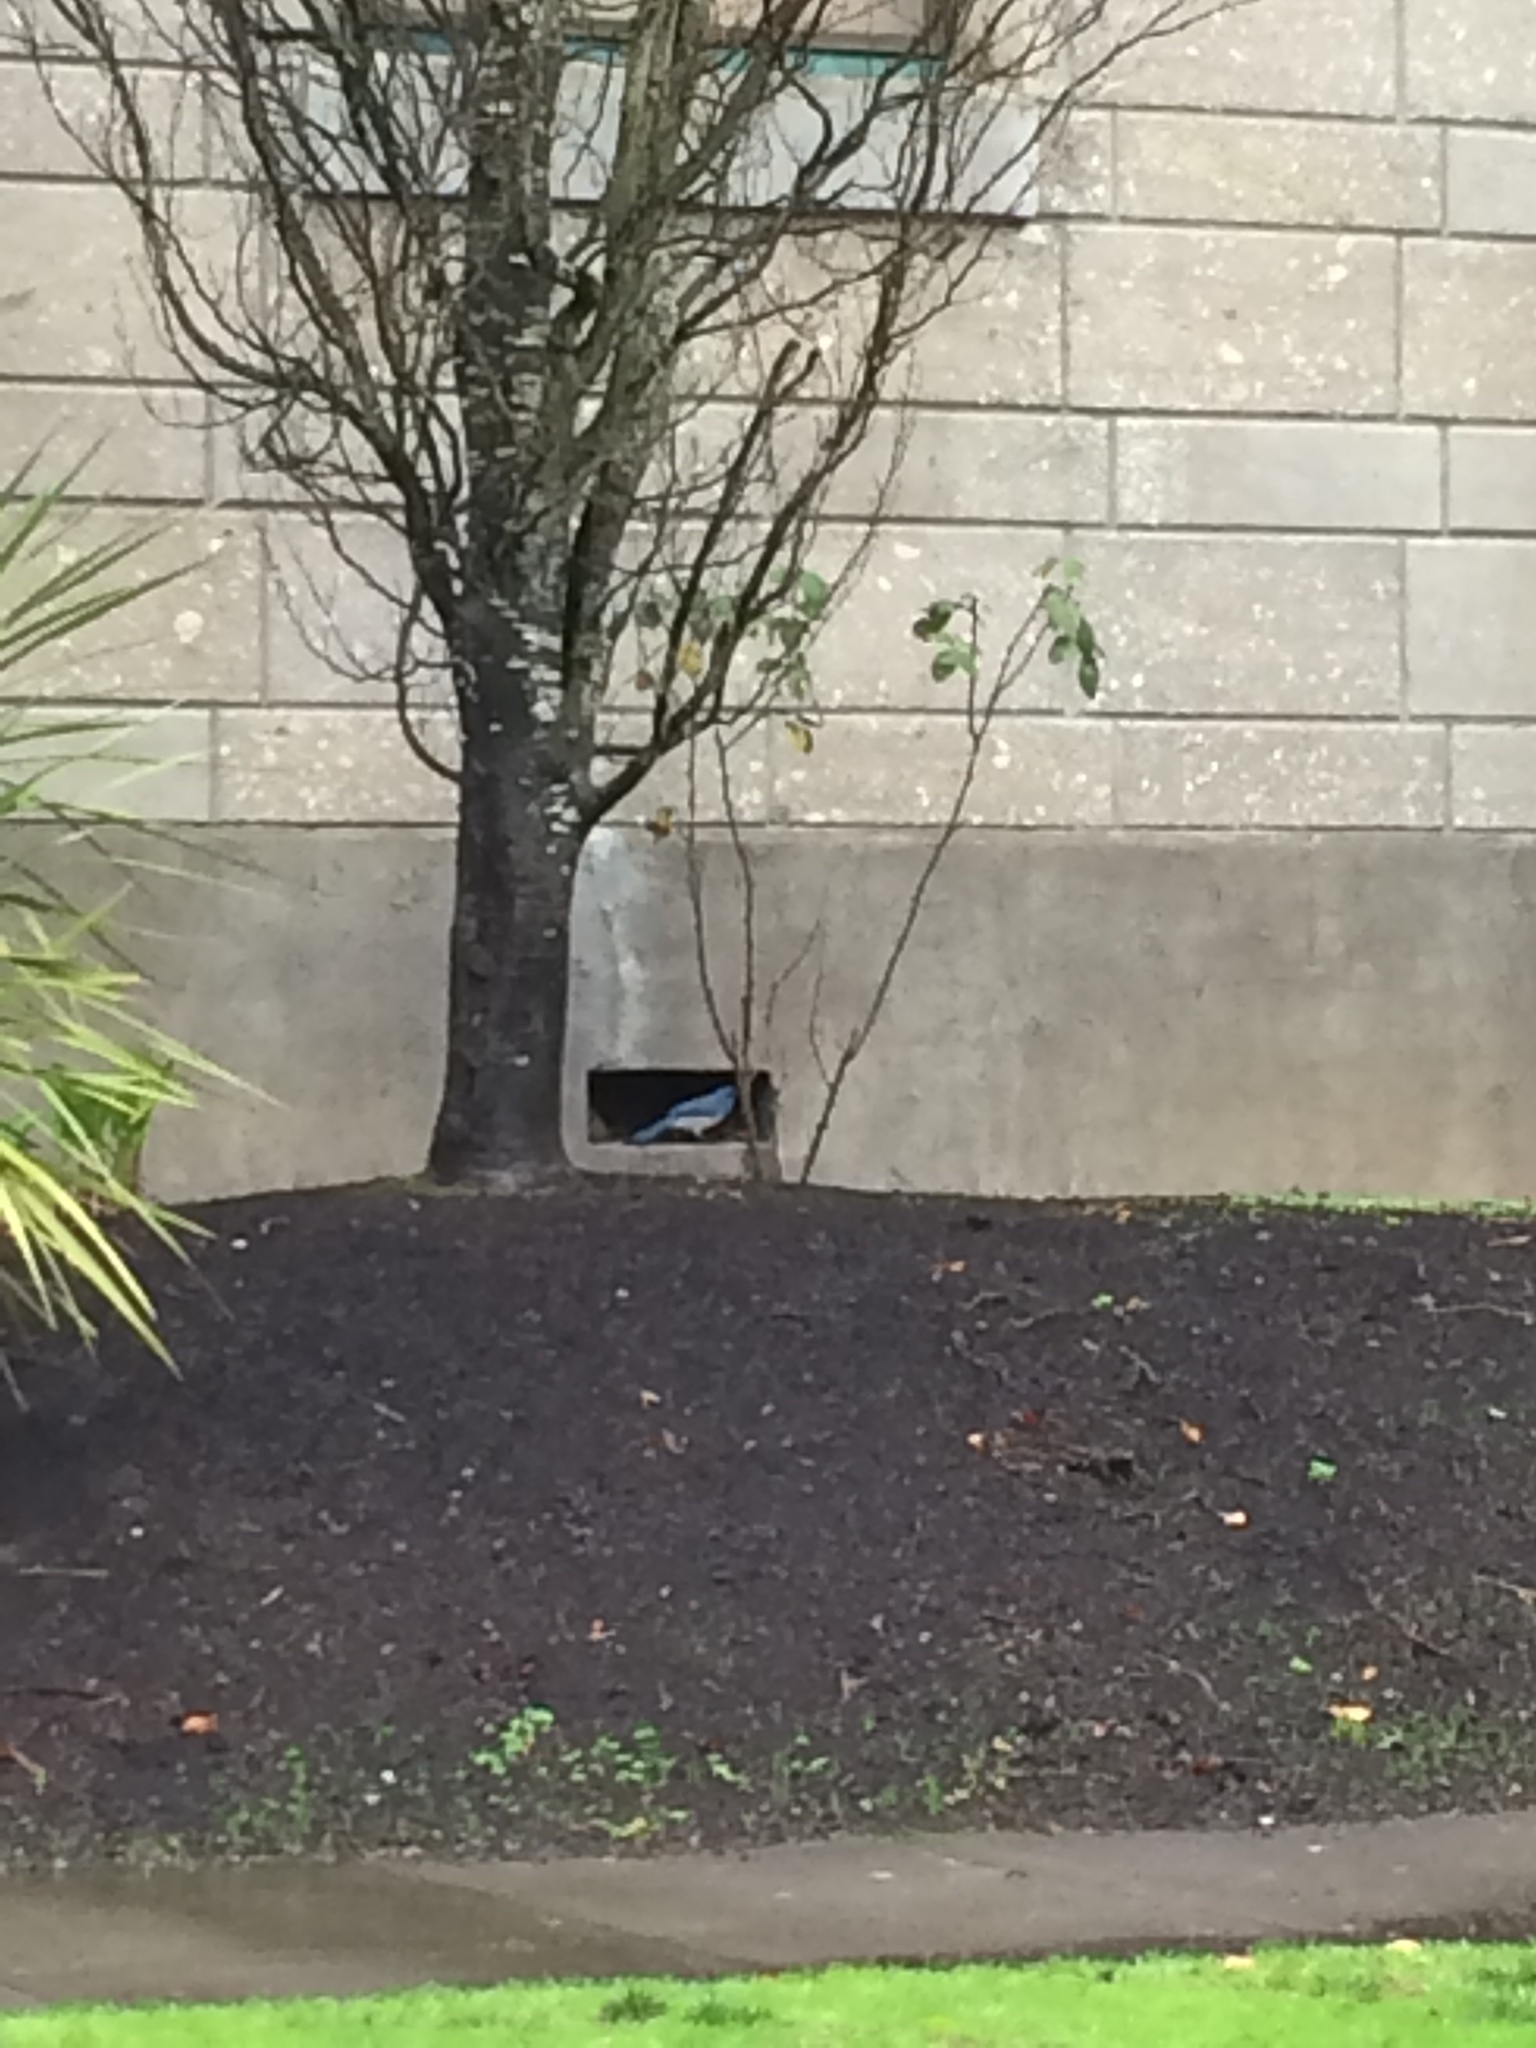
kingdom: Animalia
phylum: Chordata
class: Aves
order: Passeriformes
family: Corvidae
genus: Aphelocoma
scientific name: Aphelocoma californica
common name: California scrub-jay
